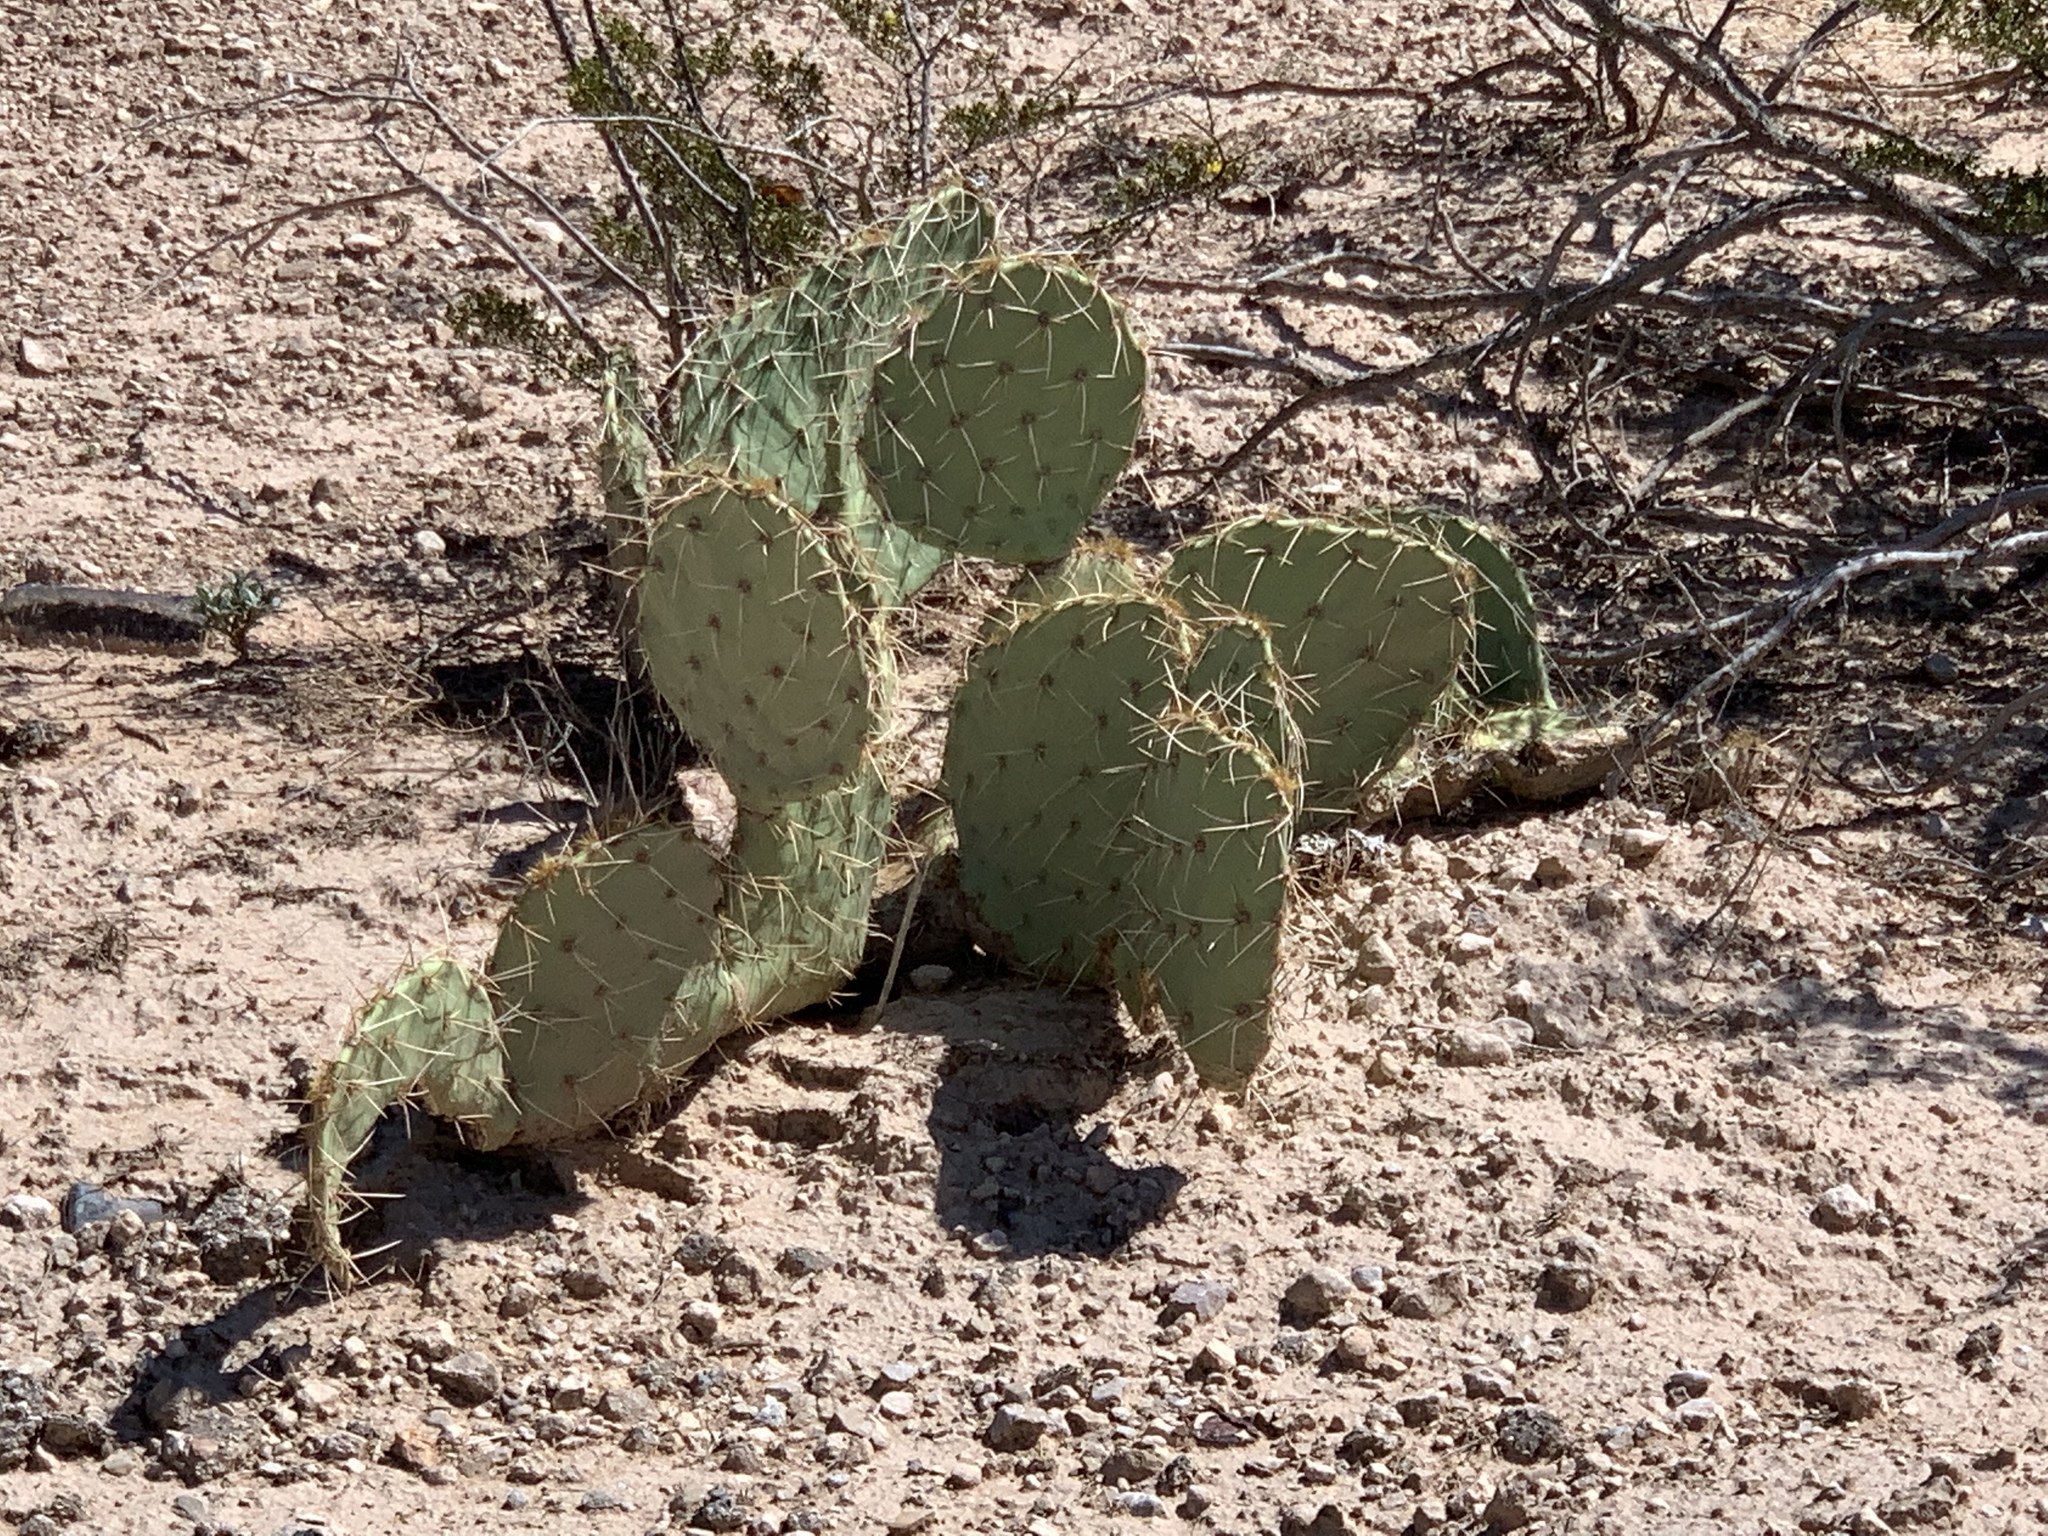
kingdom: Plantae
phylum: Tracheophyta
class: Magnoliopsida
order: Caryophyllales
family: Cactaceae
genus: Opuntia
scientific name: Opuntia engelmannii
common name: Cactus-apple
